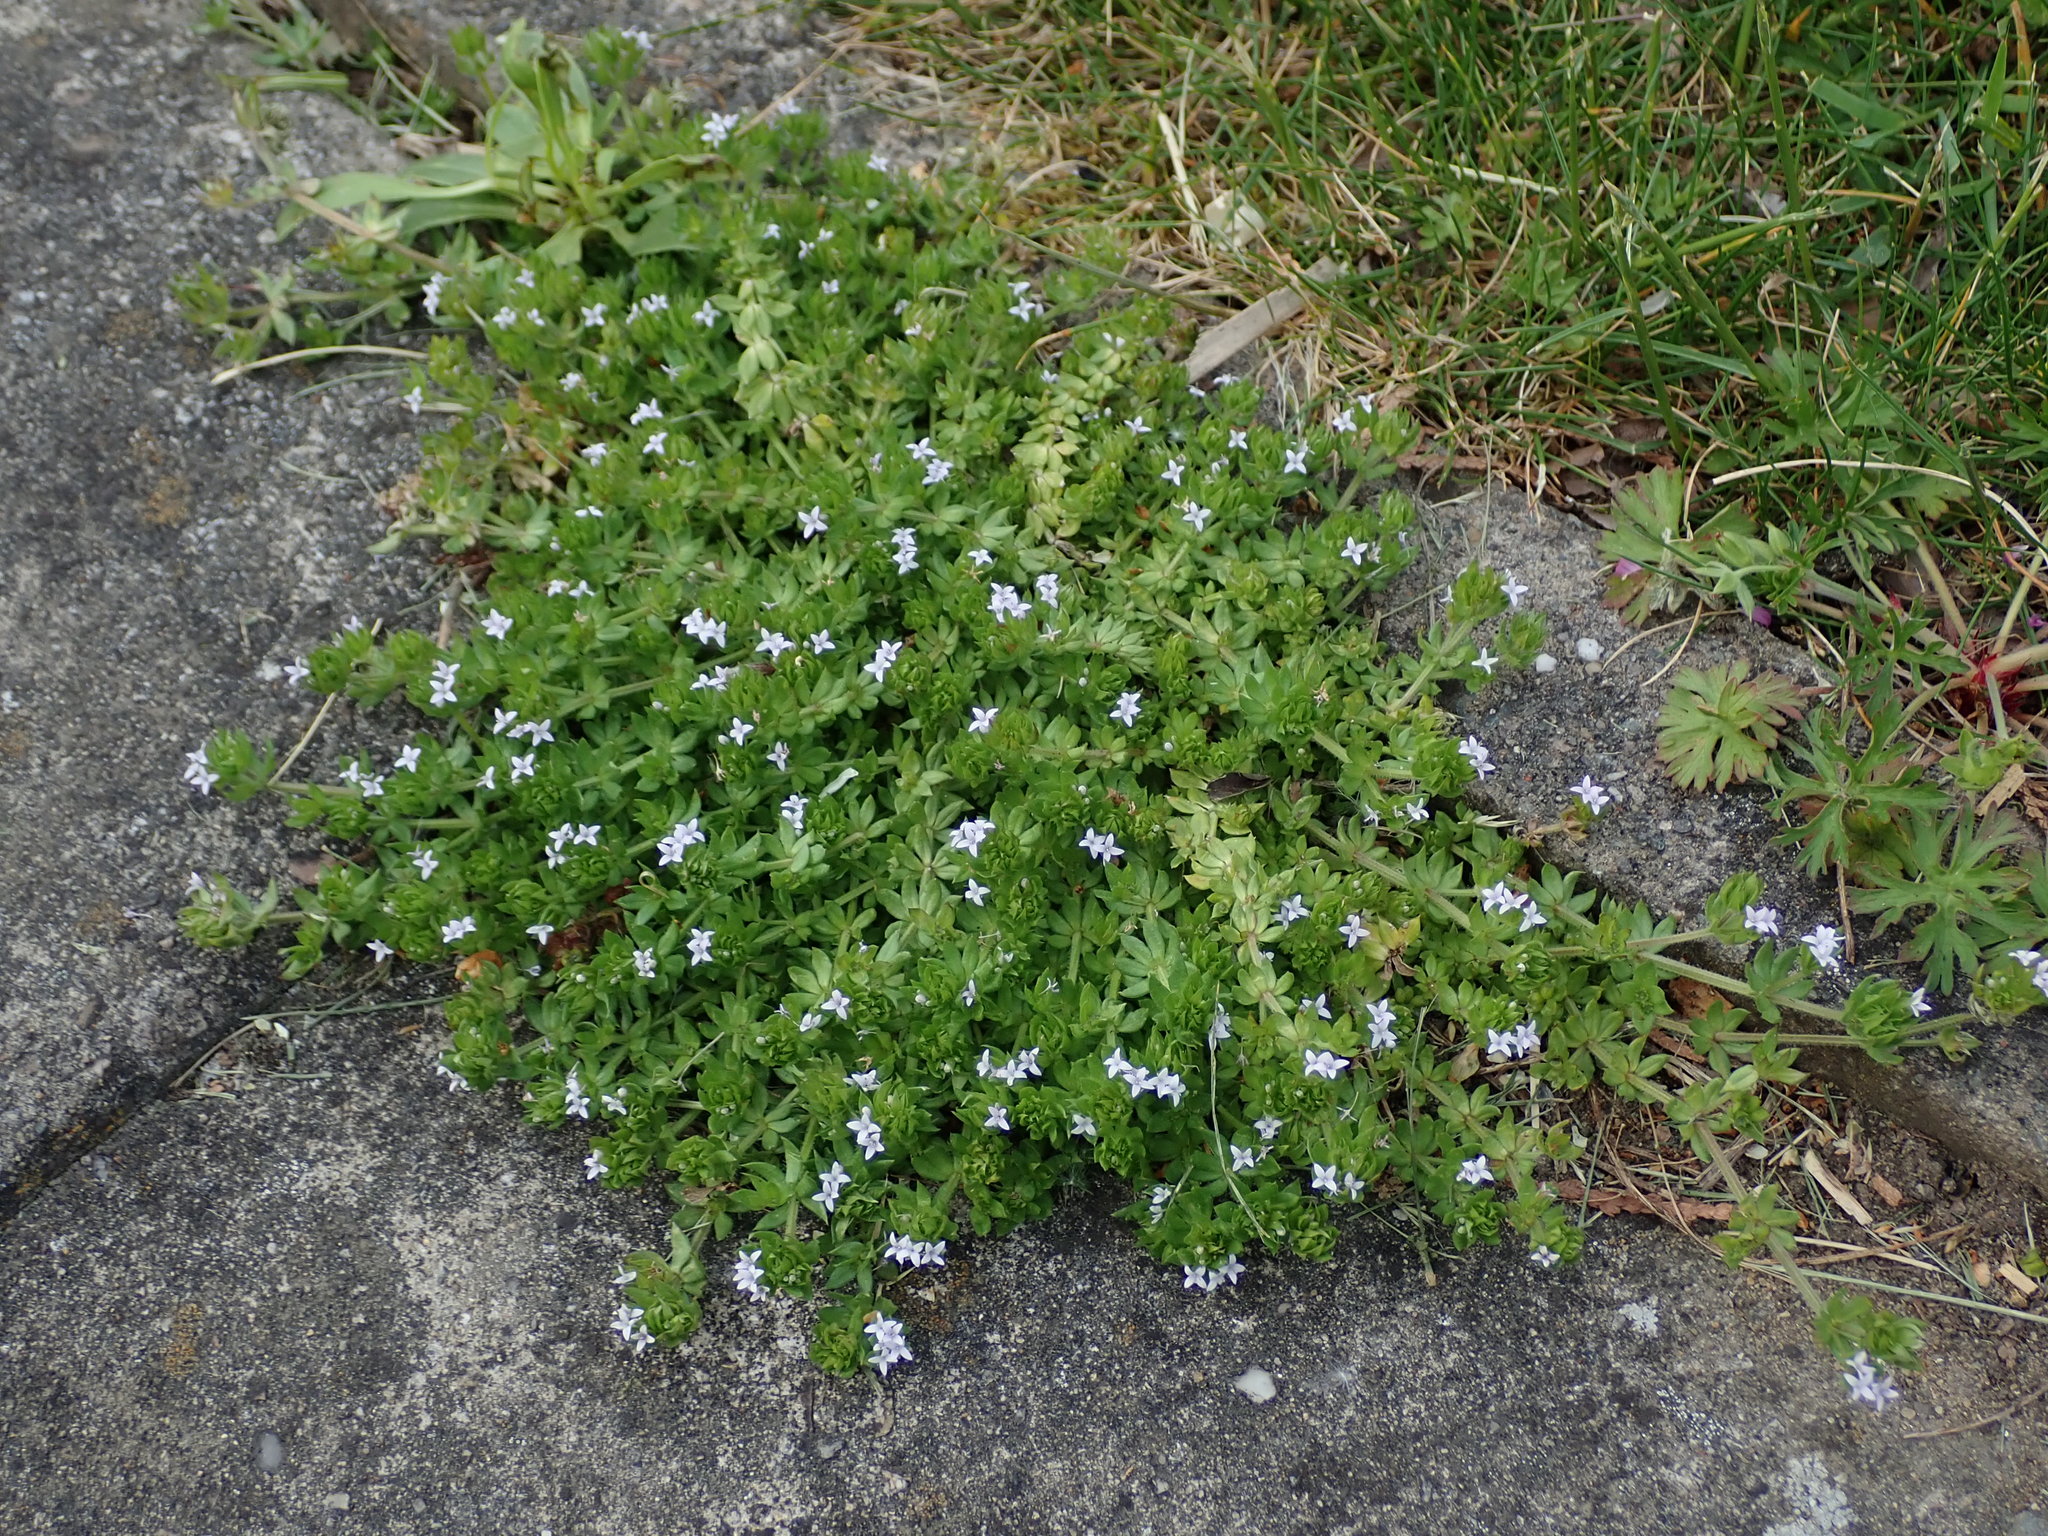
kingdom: Plantae
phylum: Tracheophyta
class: Magnoliopsida
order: Gentianales
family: Rubiaceae
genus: Sherardia
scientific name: Sherardia arvensis
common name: Field madder
